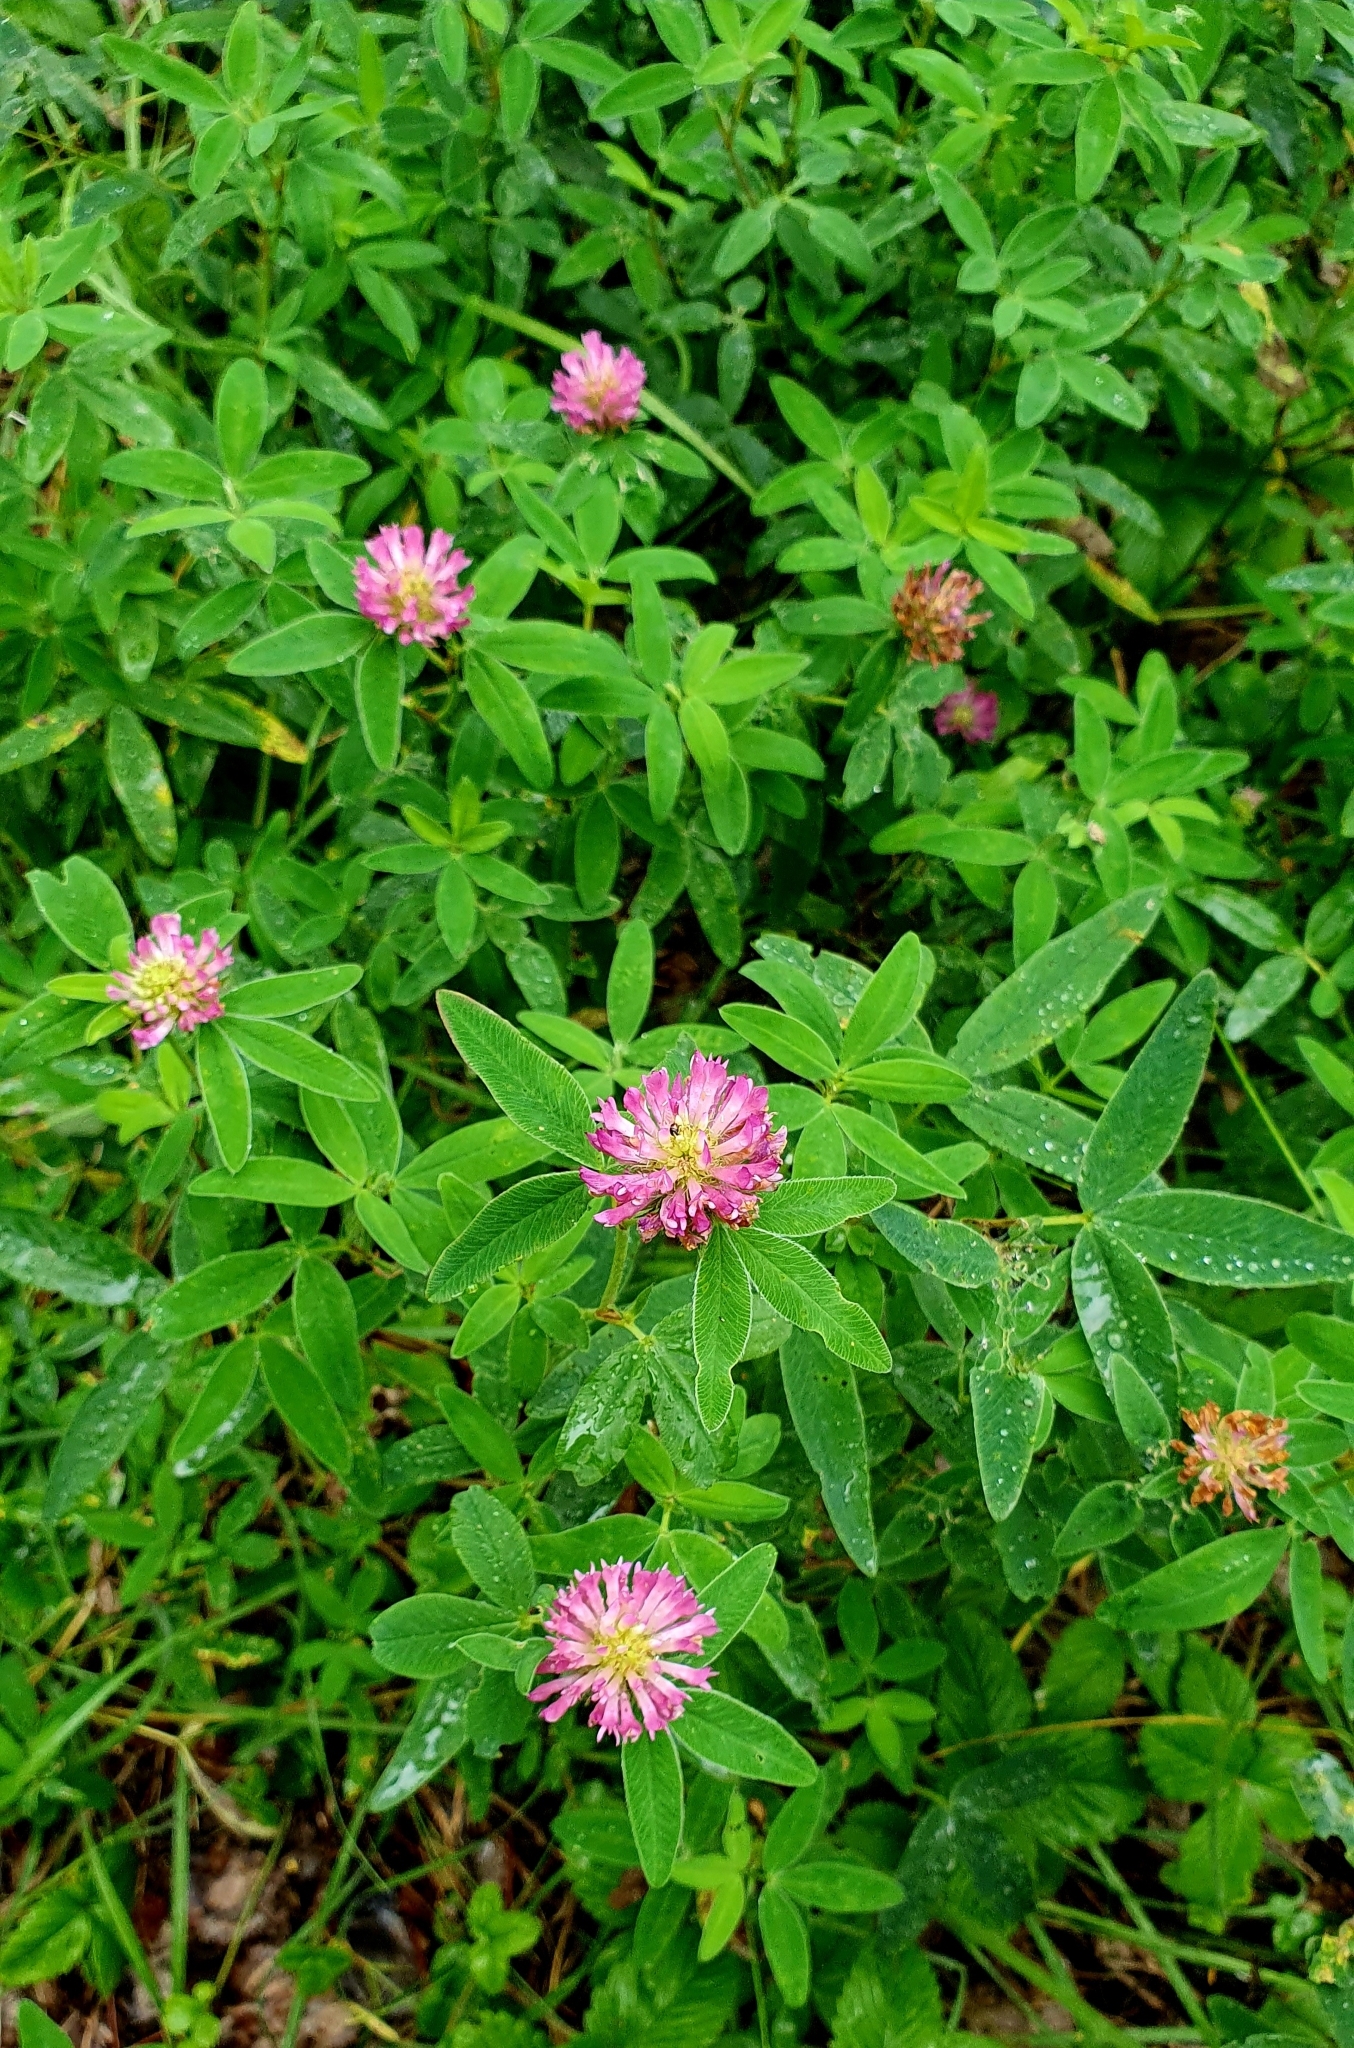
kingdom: Plantae
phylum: Tracheophyta
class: Magnoliopsida
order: Fabales
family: Fabaceae
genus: Trifolium
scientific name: Trifolium medium
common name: Zigzag clover
